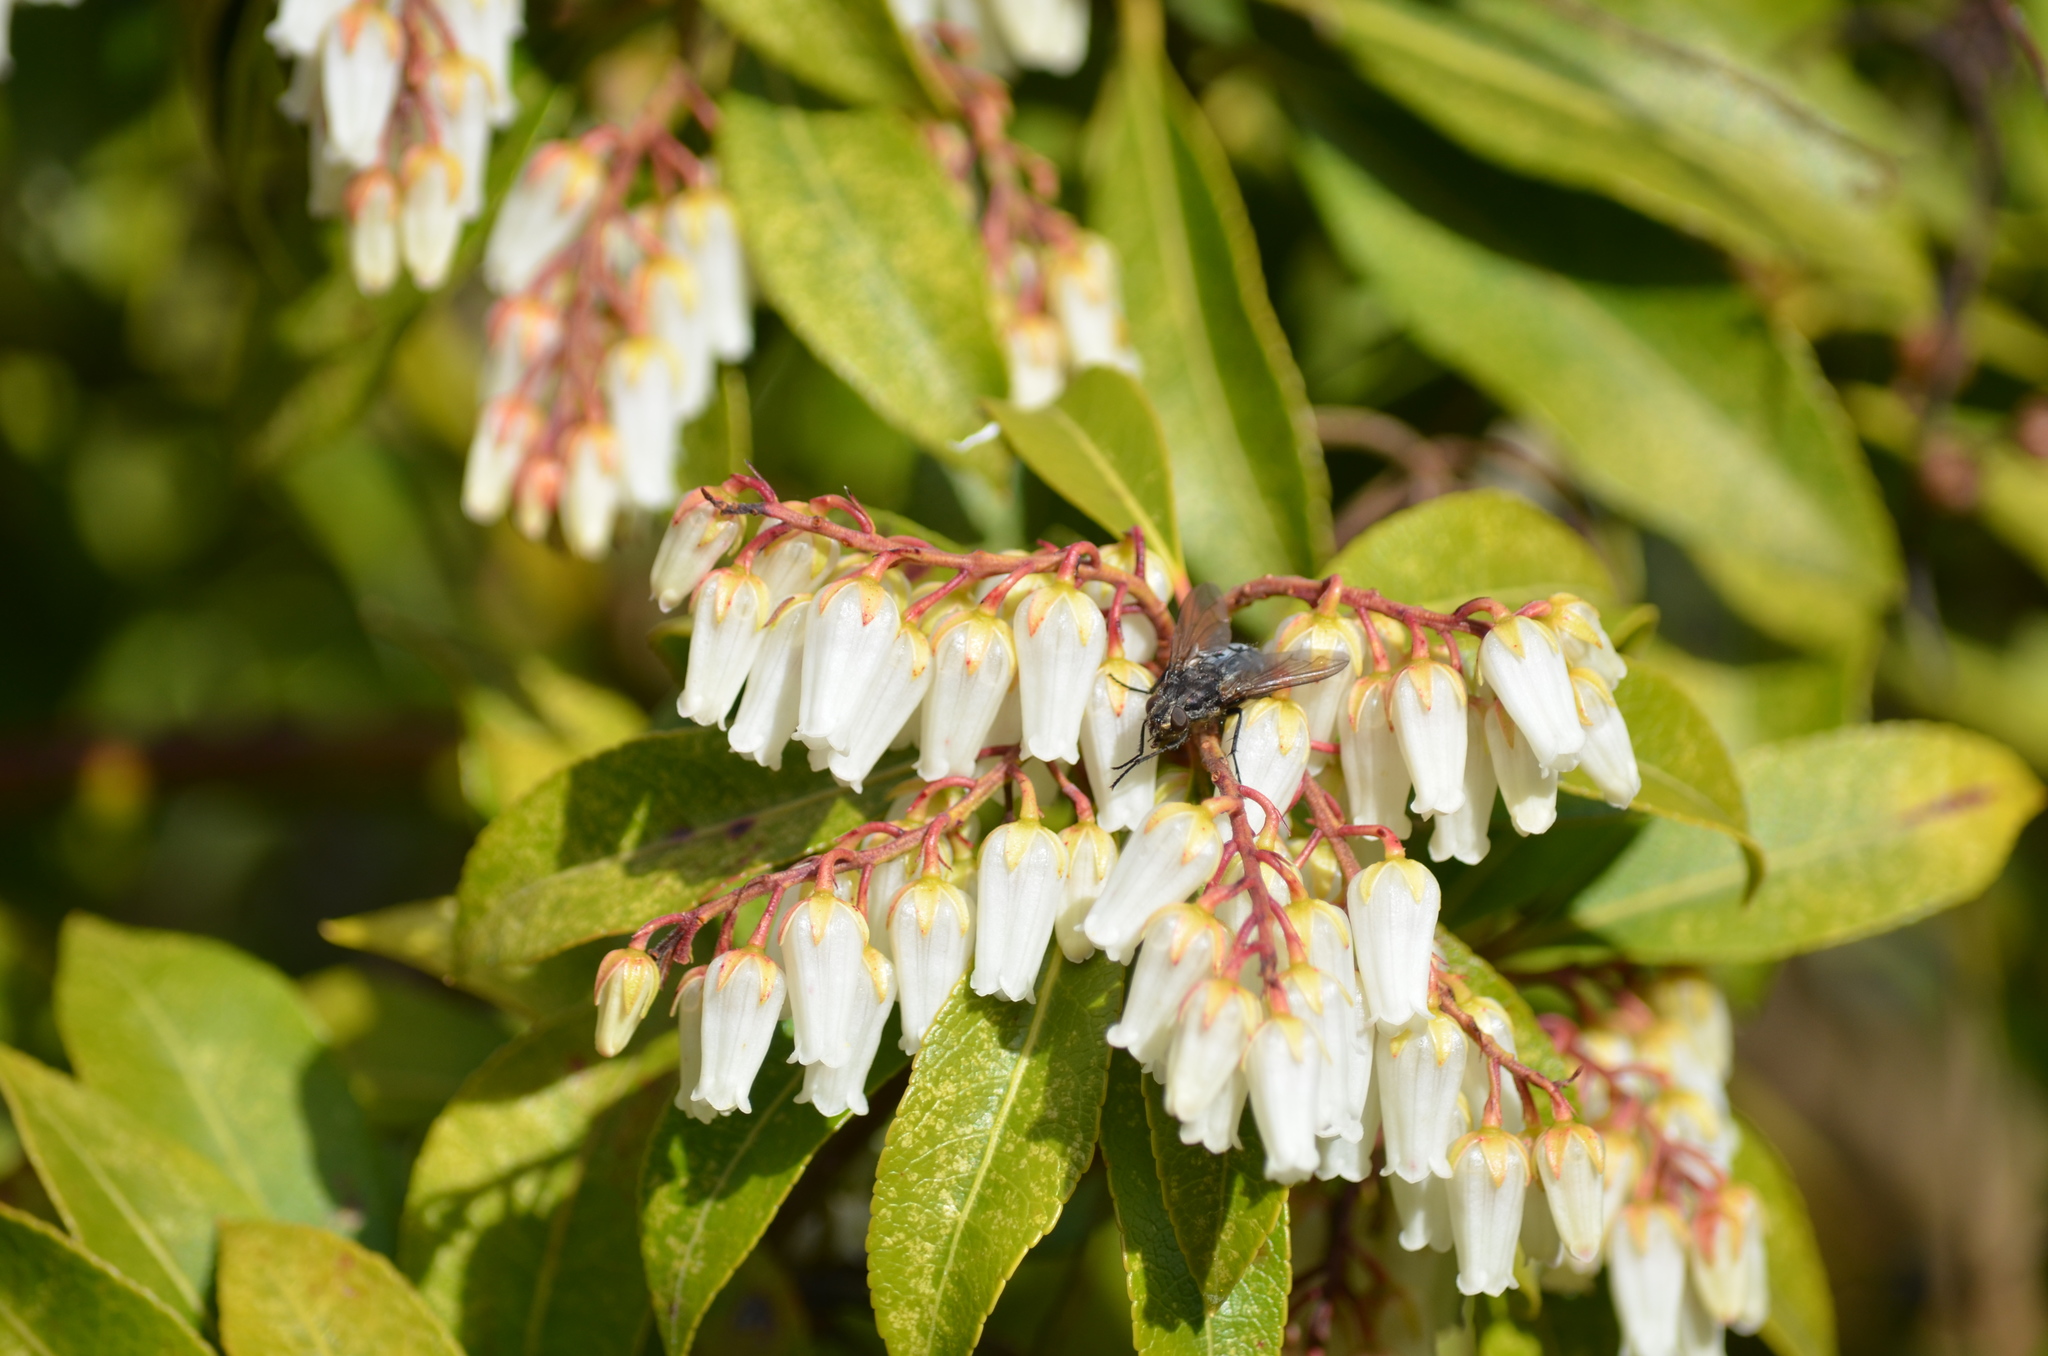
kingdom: Animalia
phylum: Arthropoda
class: Insecta
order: Diptera
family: Polleniidae
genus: Pollenia
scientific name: Pollenia vagabunda
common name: Vagabund cluster fly
